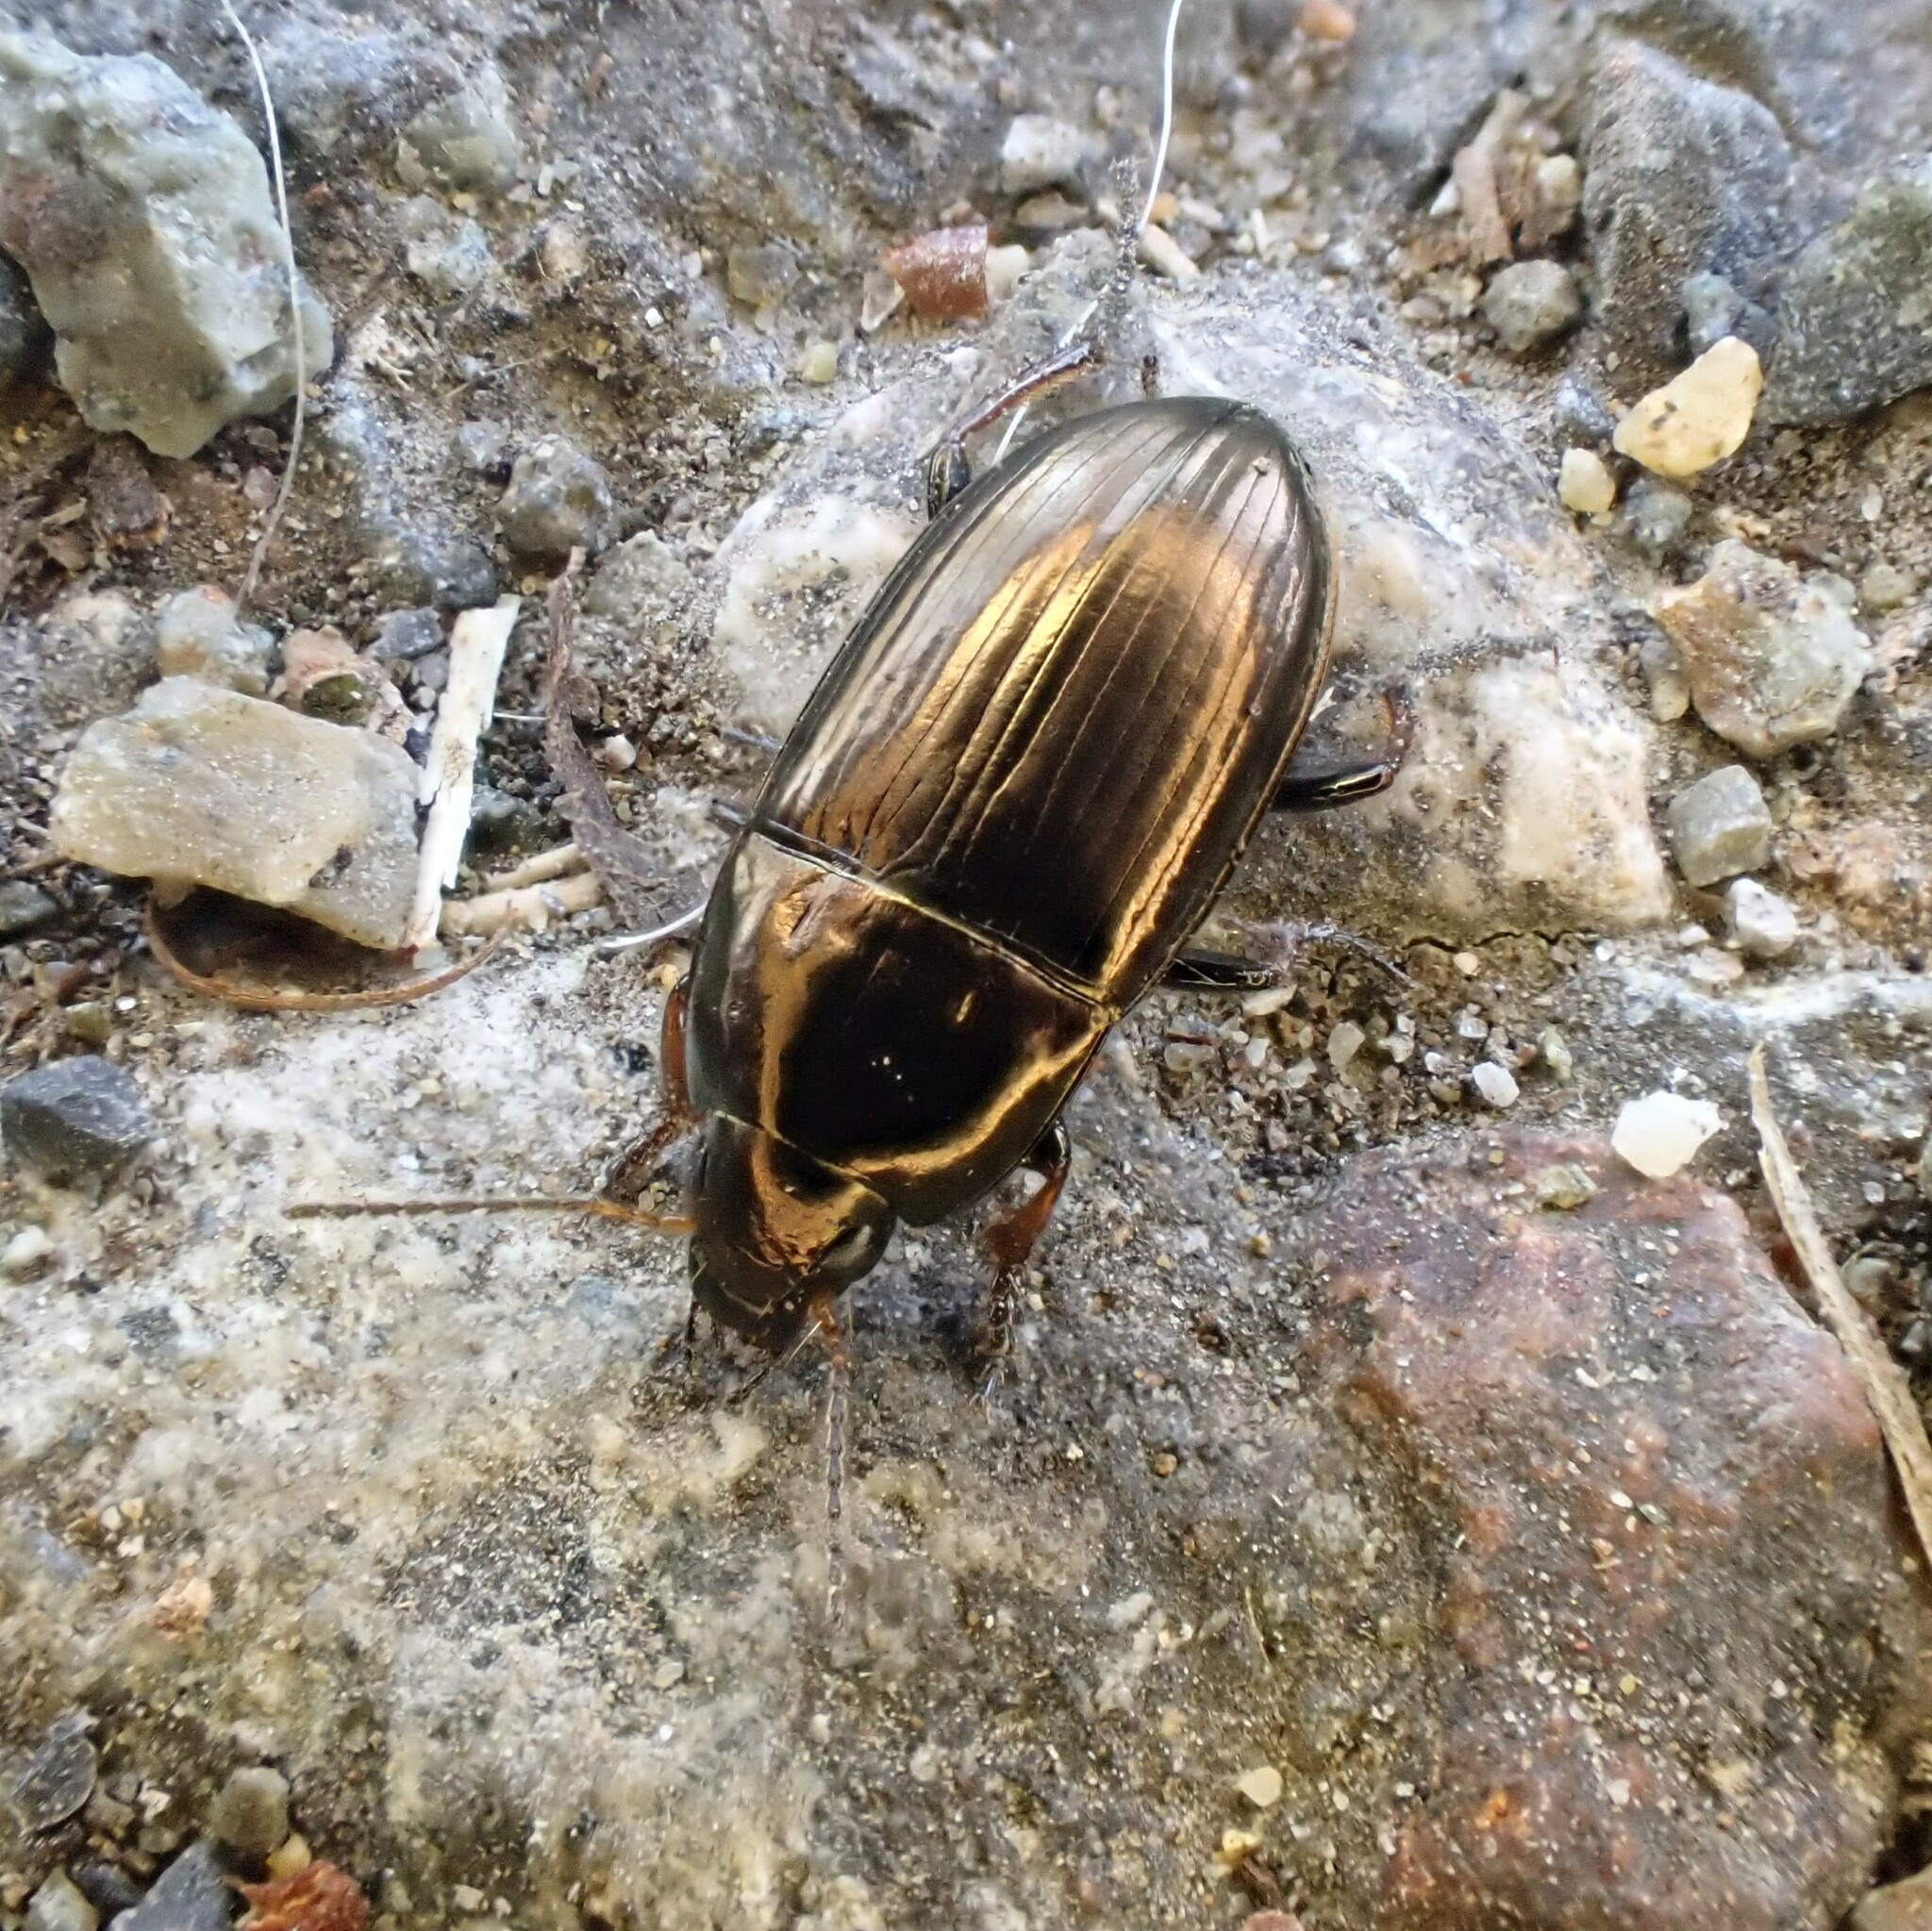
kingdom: Animalia
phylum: Arthropoda
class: Insecta
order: Coleoptera
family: Carabidae
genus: Amara
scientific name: Amara aenea
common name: Common sun beetle
